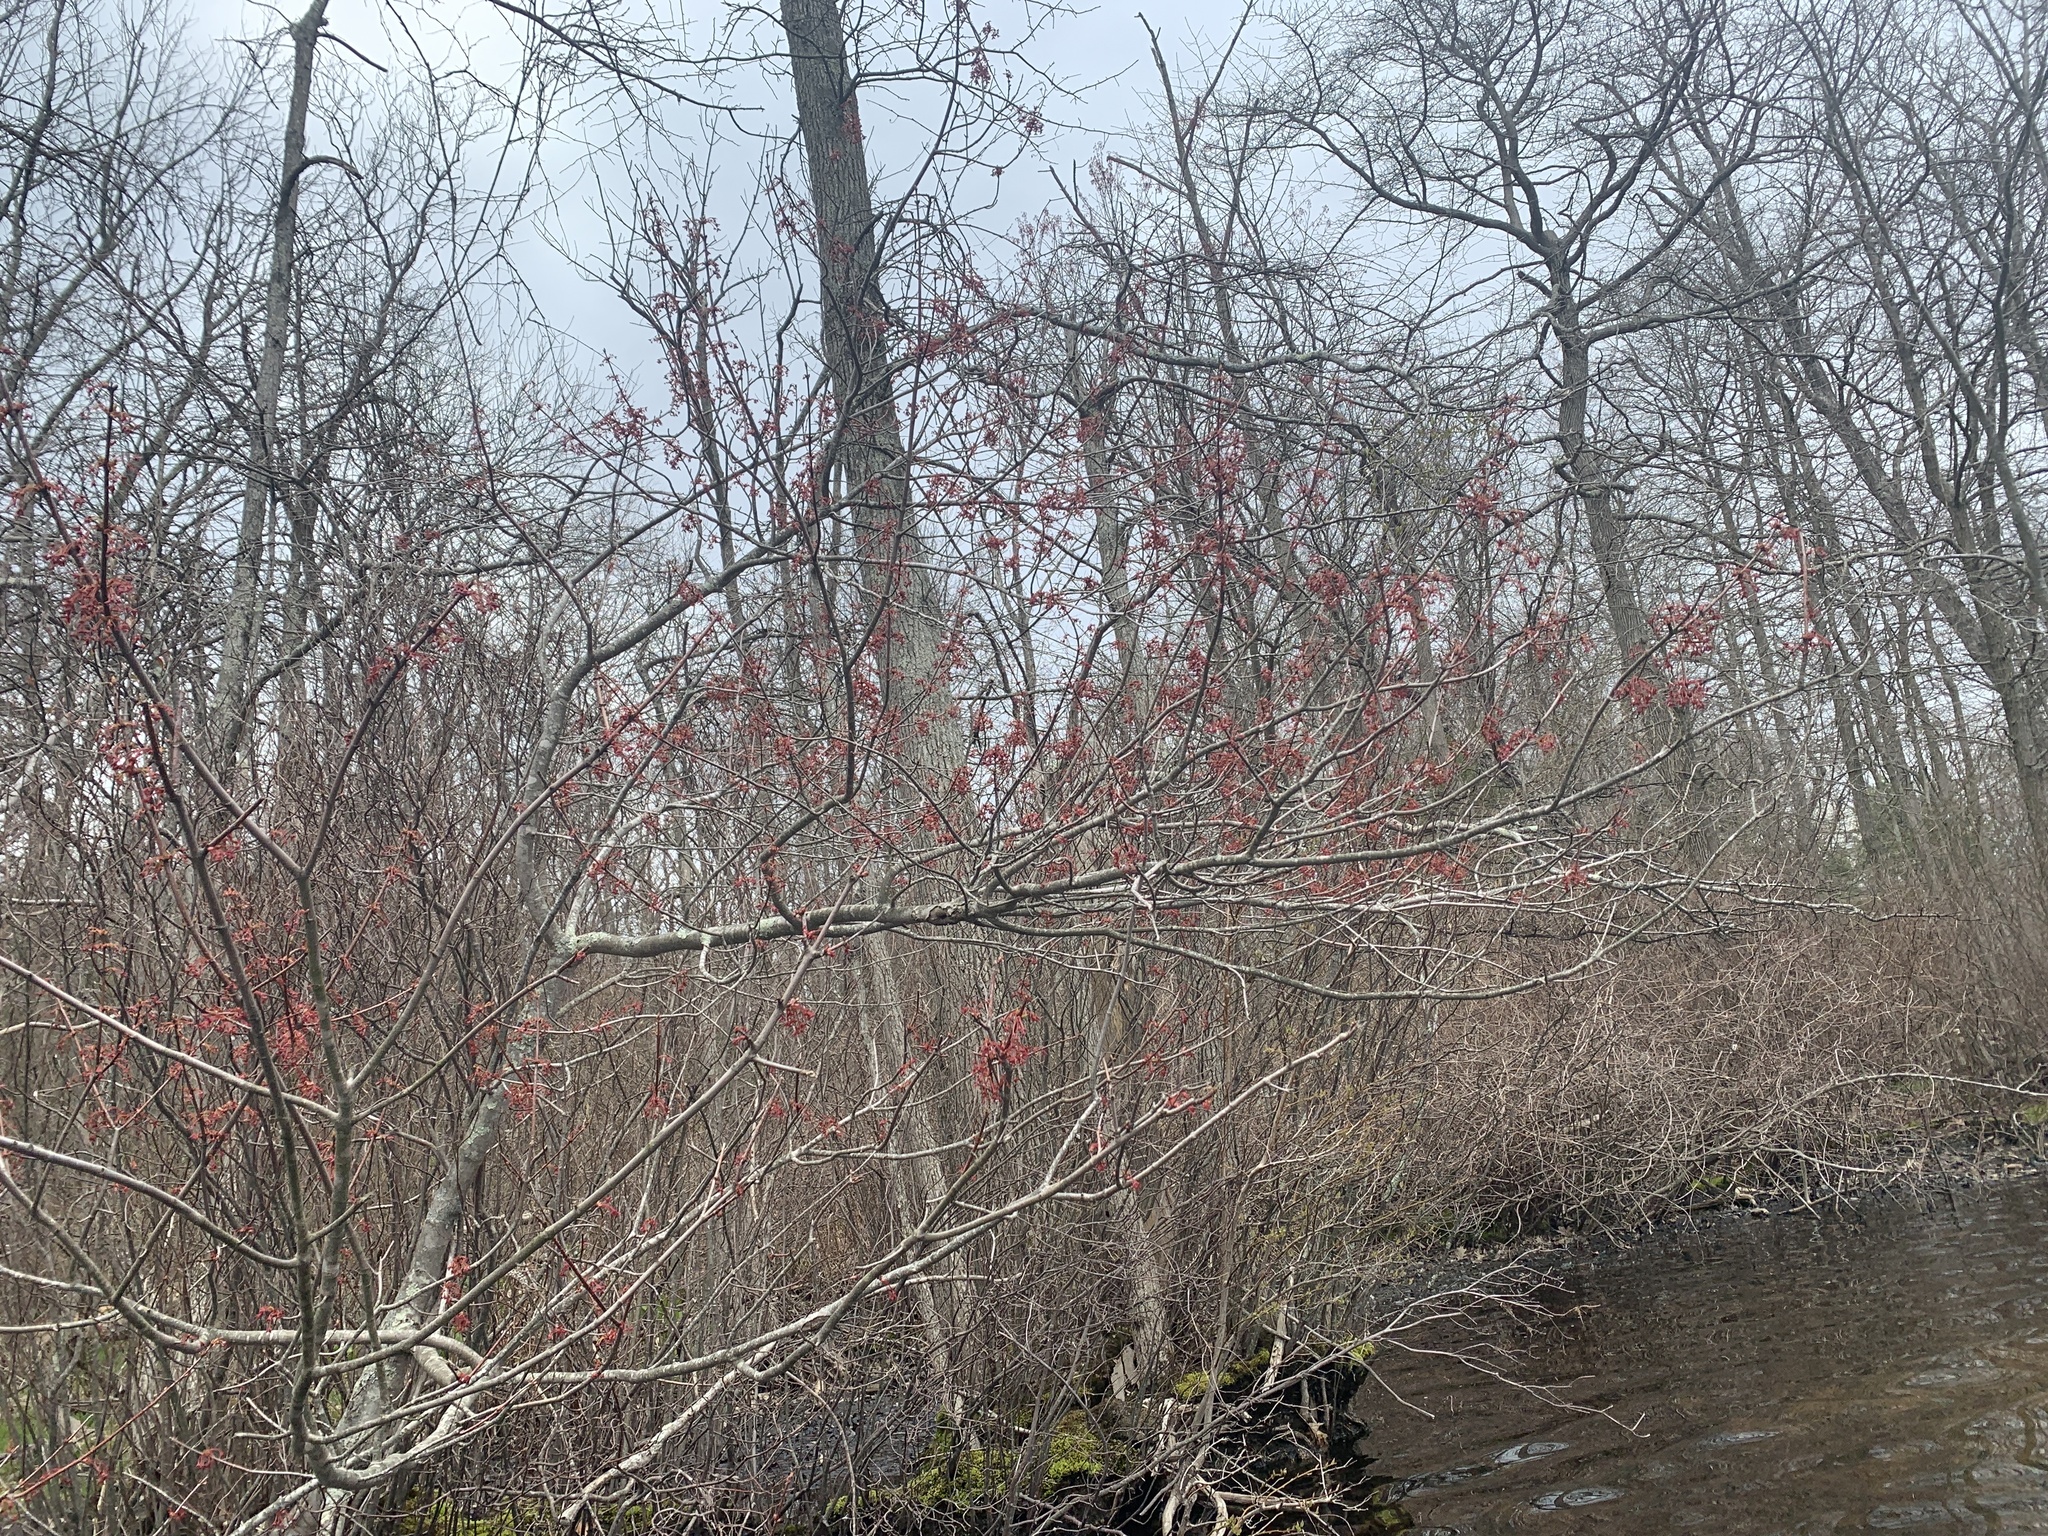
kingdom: Plantae
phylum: Tracheophyta
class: Magnoliopsida
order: Sapindales
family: Sapindaceae
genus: Acer
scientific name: Acer rubrum
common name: Red maple
